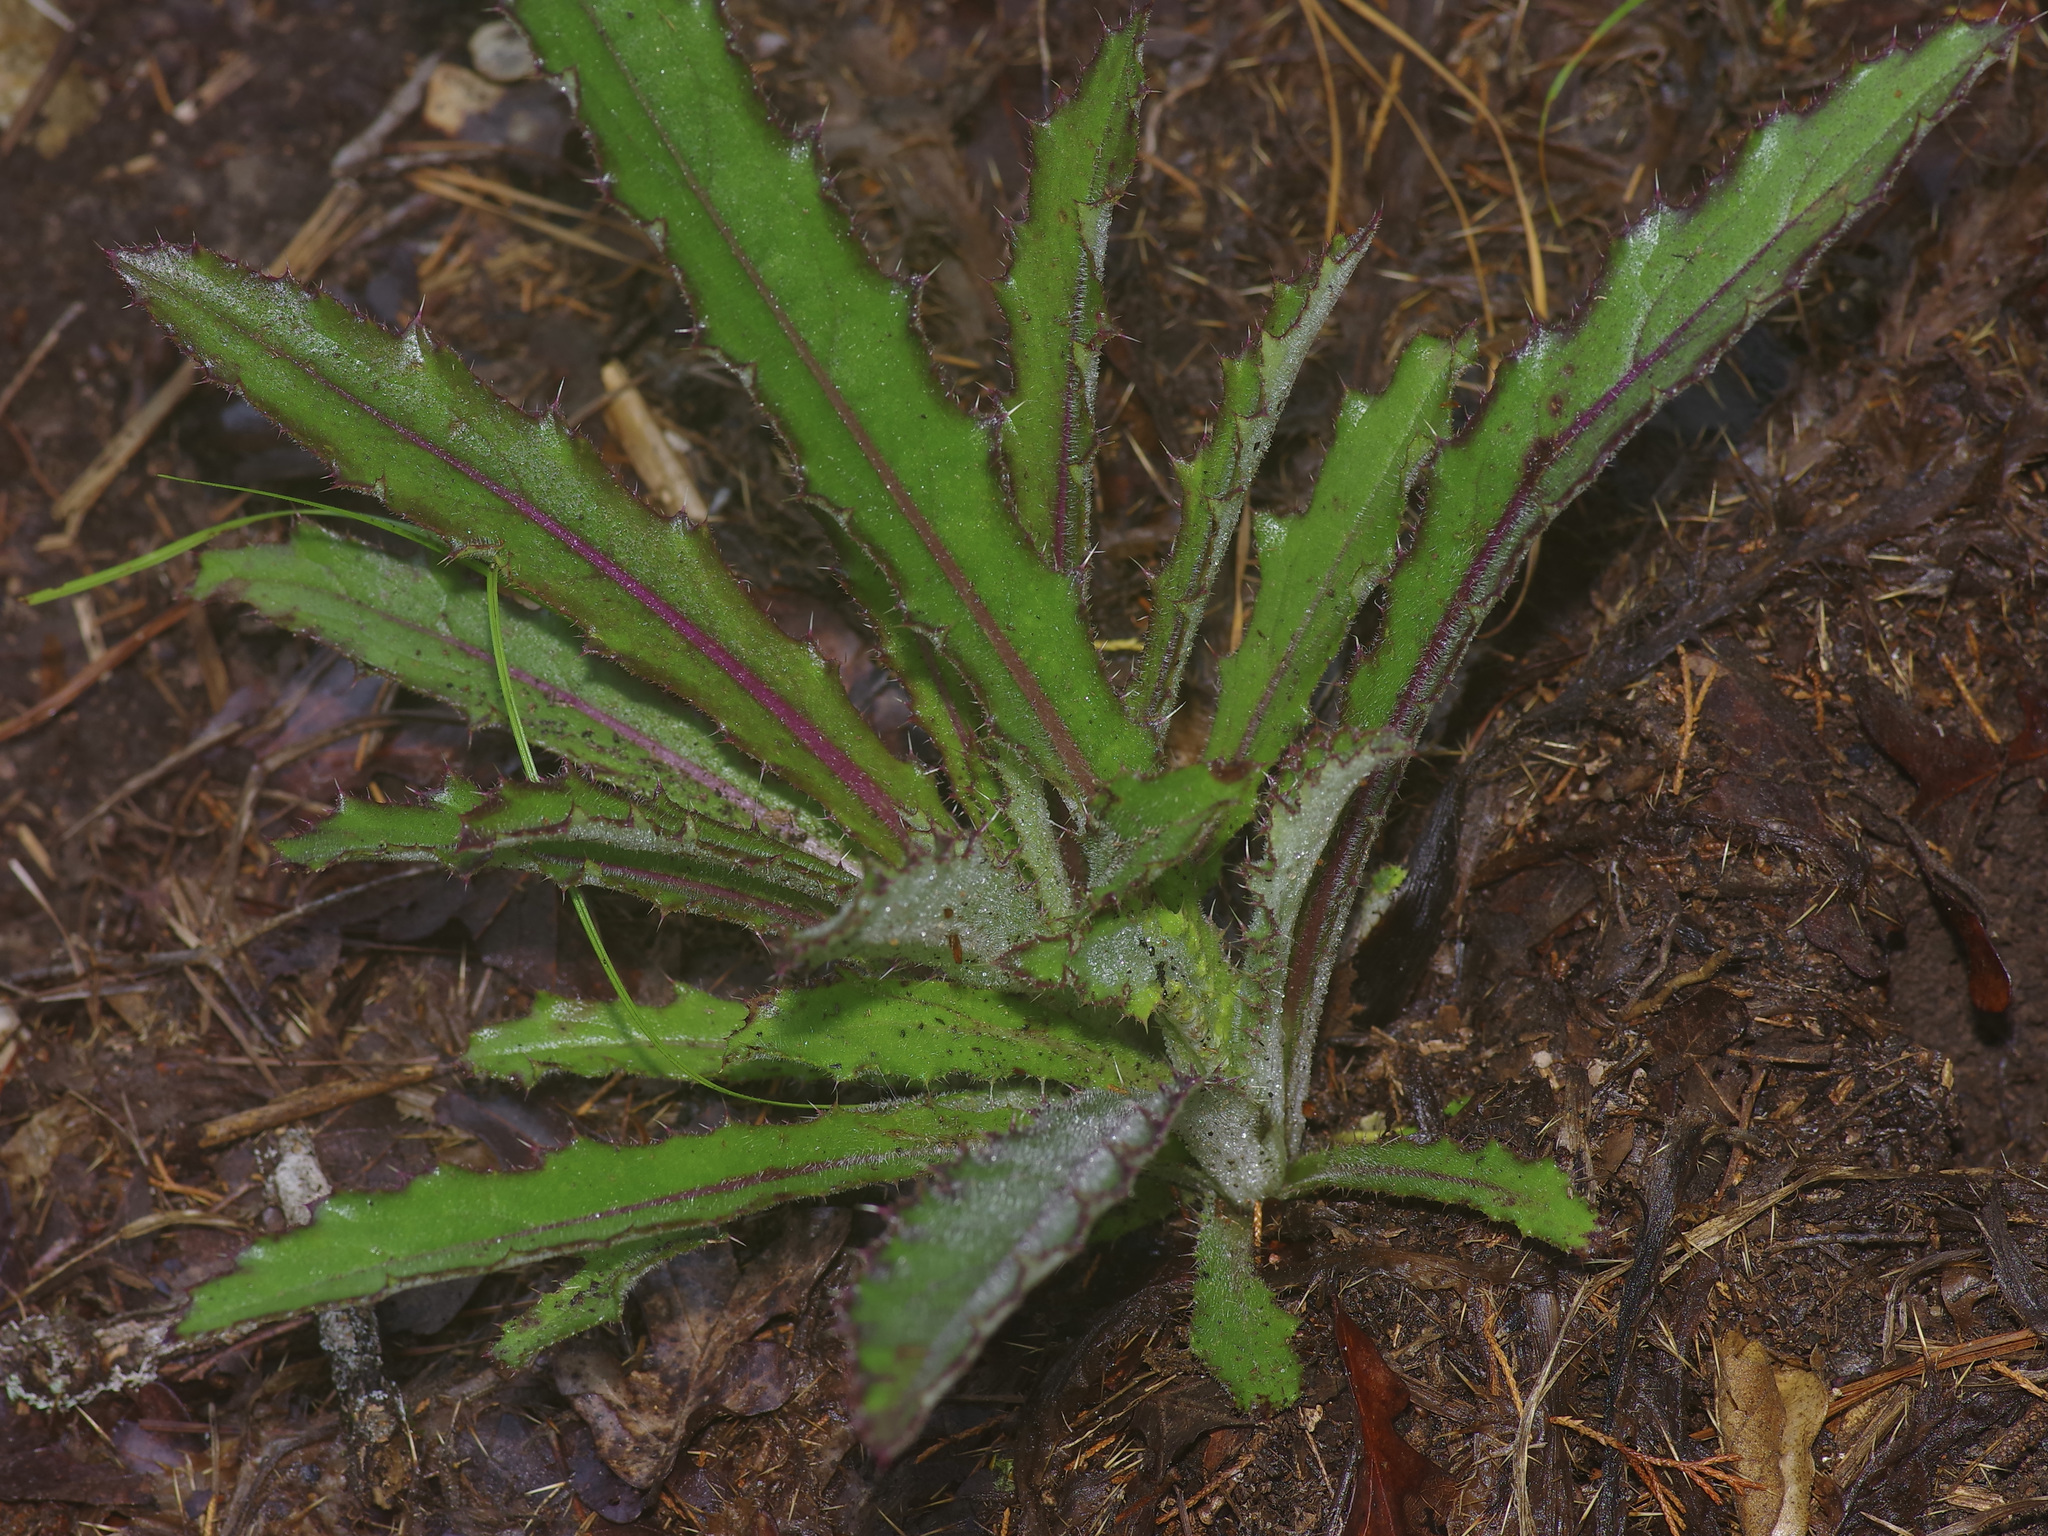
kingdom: Plantae
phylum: Tracheophyta
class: Magnoliopsida
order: Asterales
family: Asteraceae
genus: Cirsium
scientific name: Cirsium horridulum
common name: Bristly thistle
